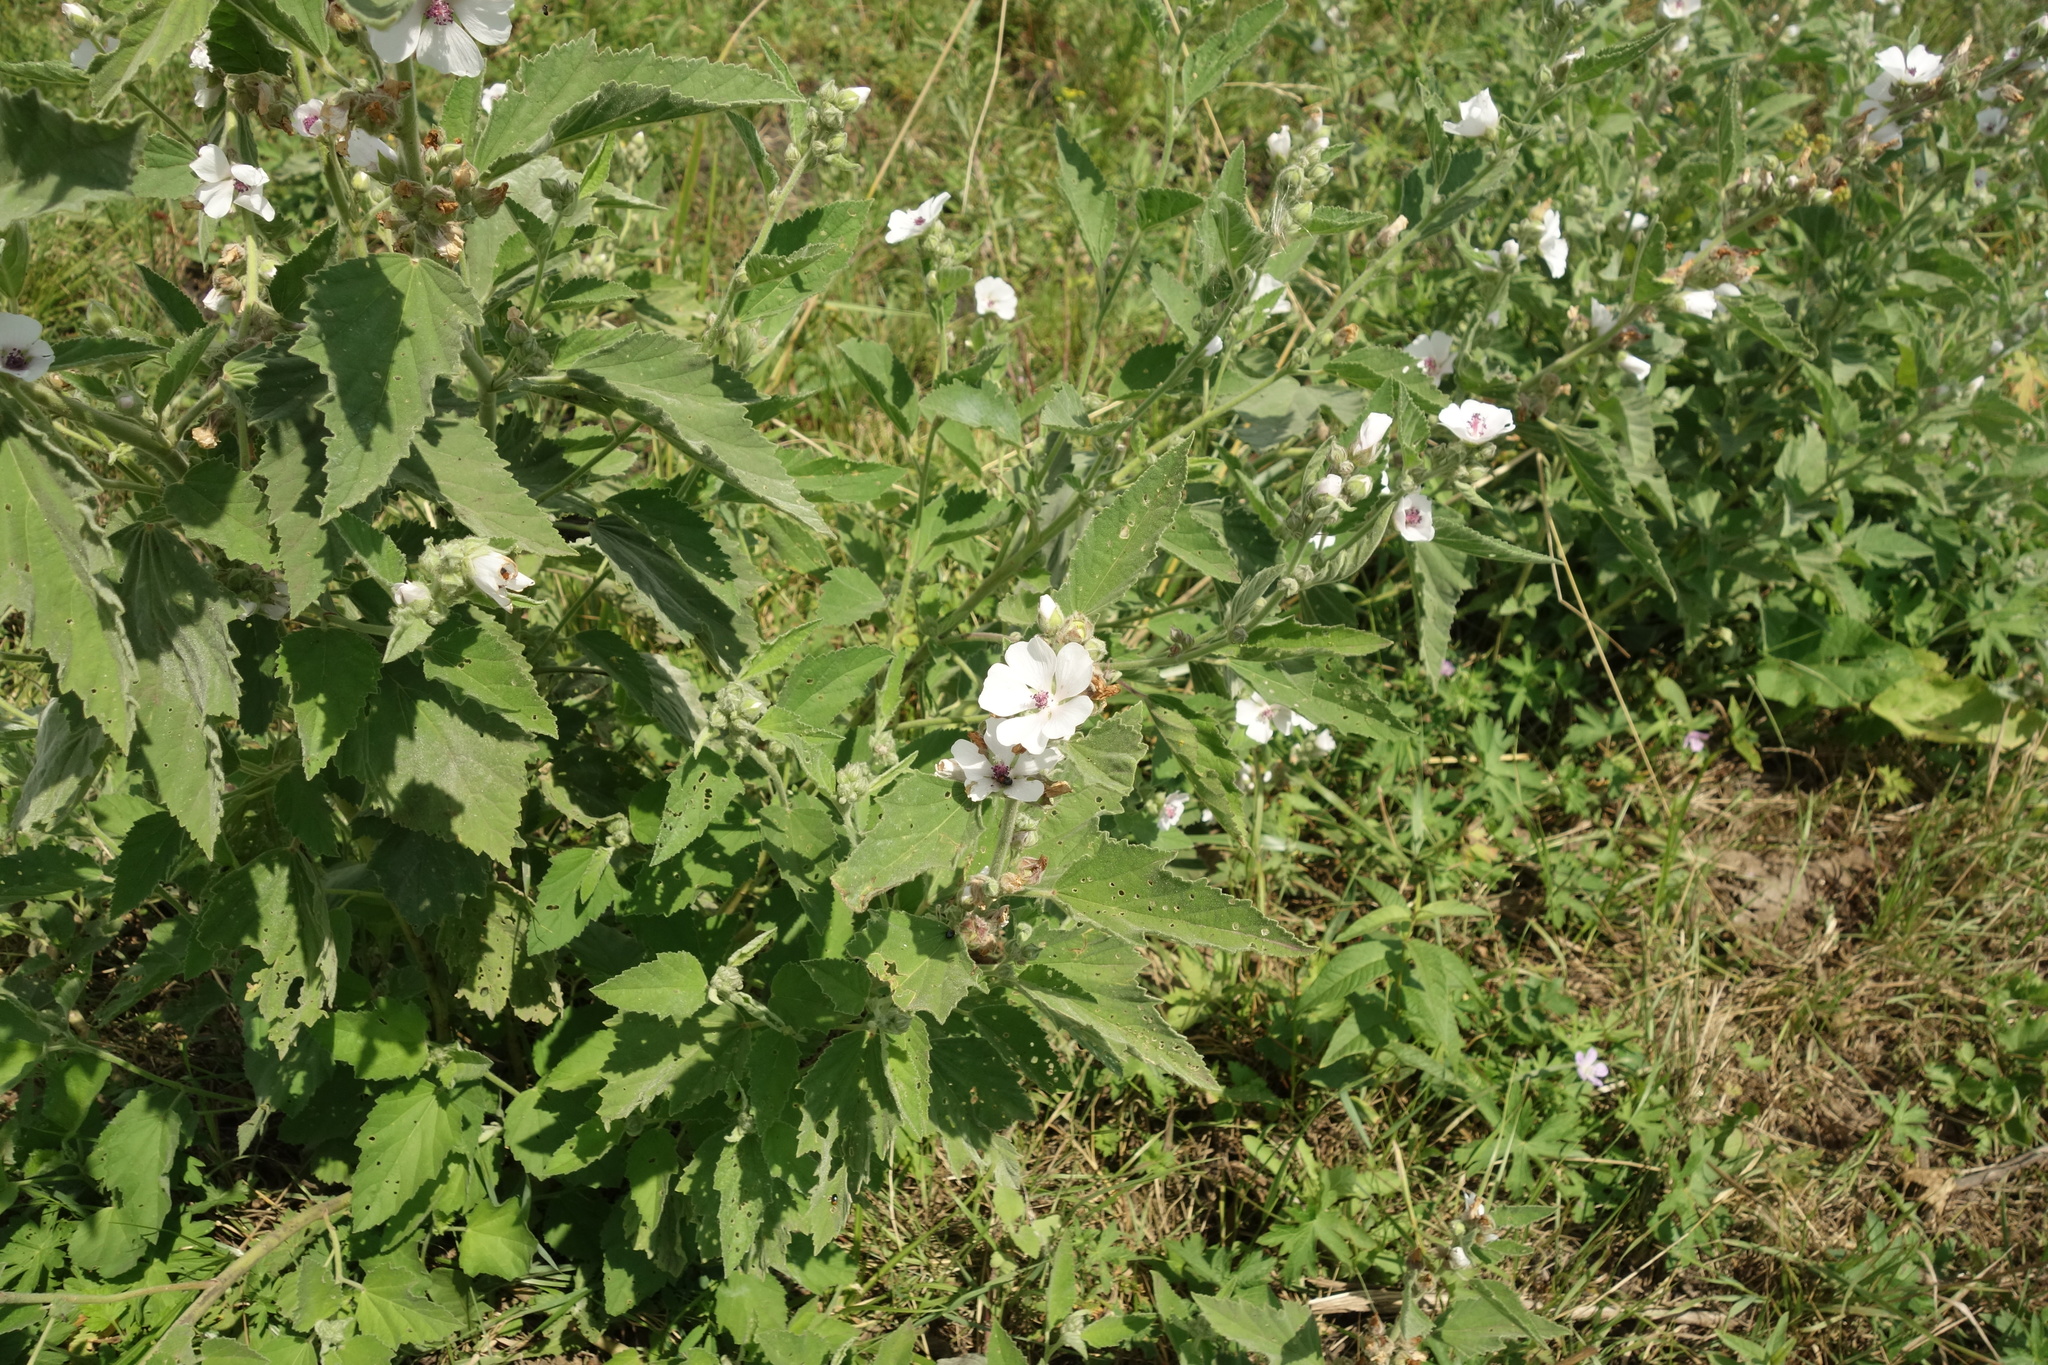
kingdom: Plantae
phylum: Tracheophyta
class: Magnoliopsida
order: Malvales
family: Malvaceae
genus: Althaea
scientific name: Althaea officinalis
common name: Marsh-mallow
